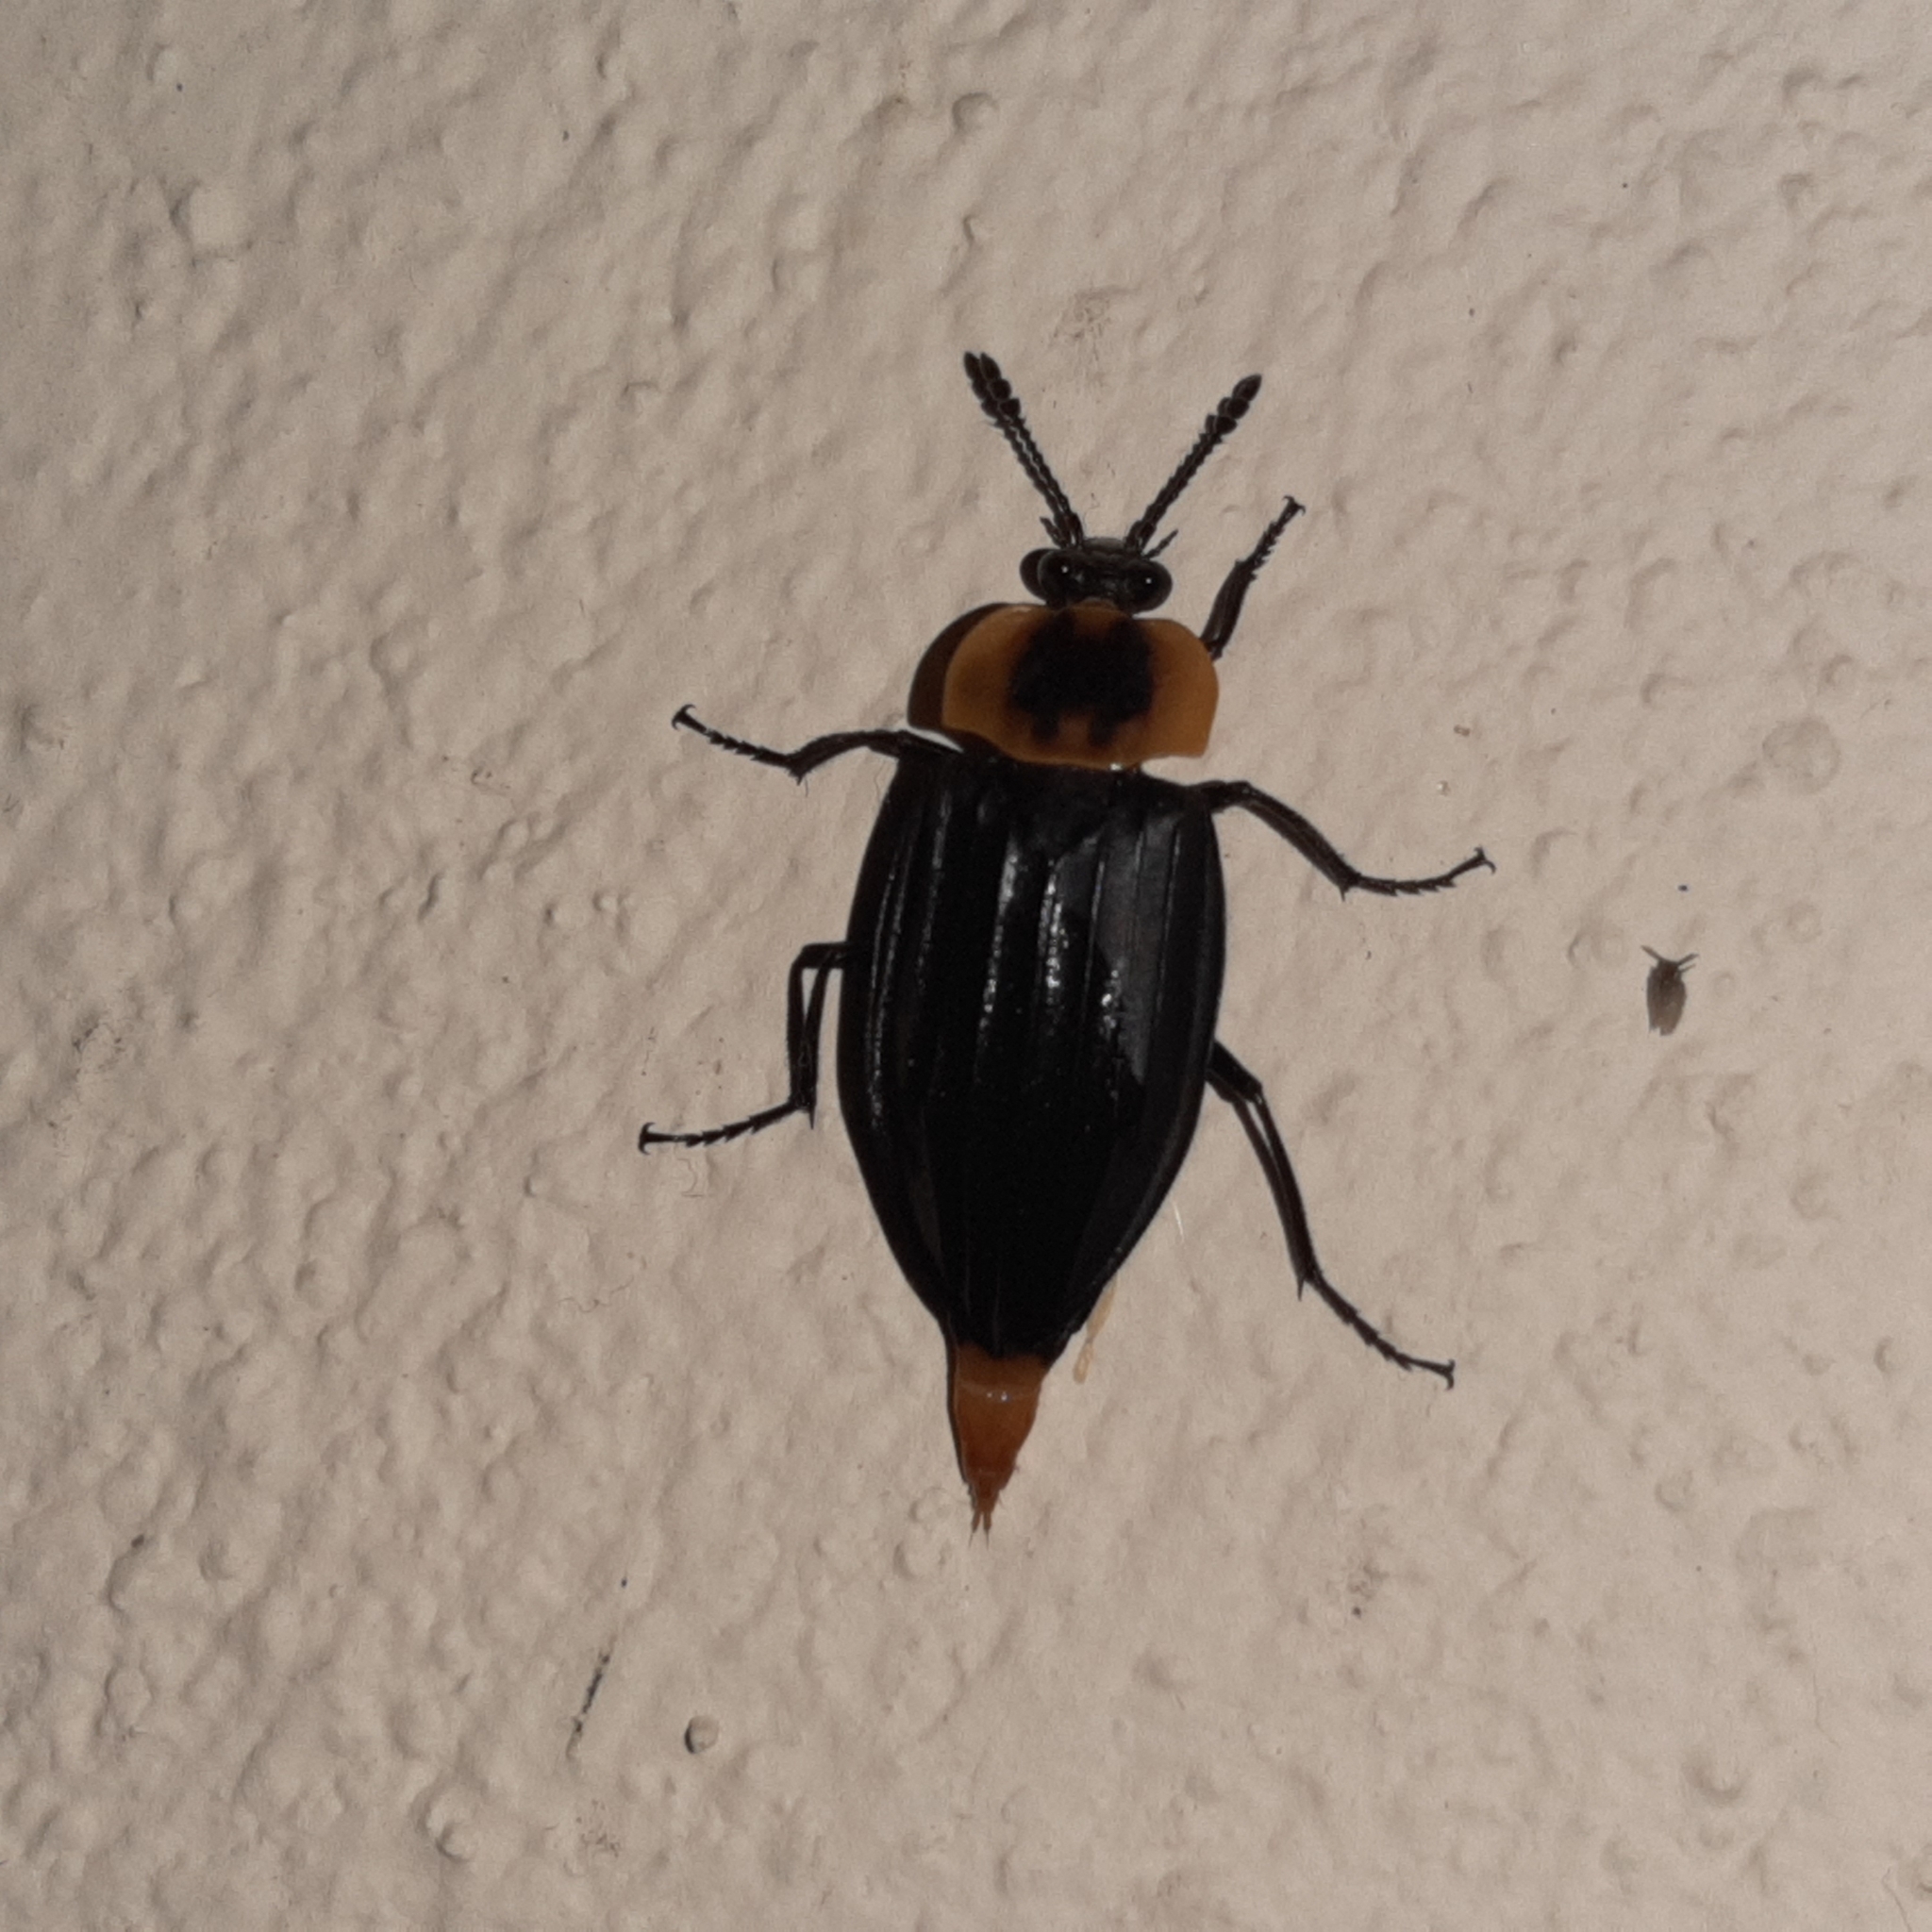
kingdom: Animalia
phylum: Arthropoda
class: Insecta
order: Coleoptera
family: Staphylinidae
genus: Oxelytrum
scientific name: Oxelytrum discicolle
